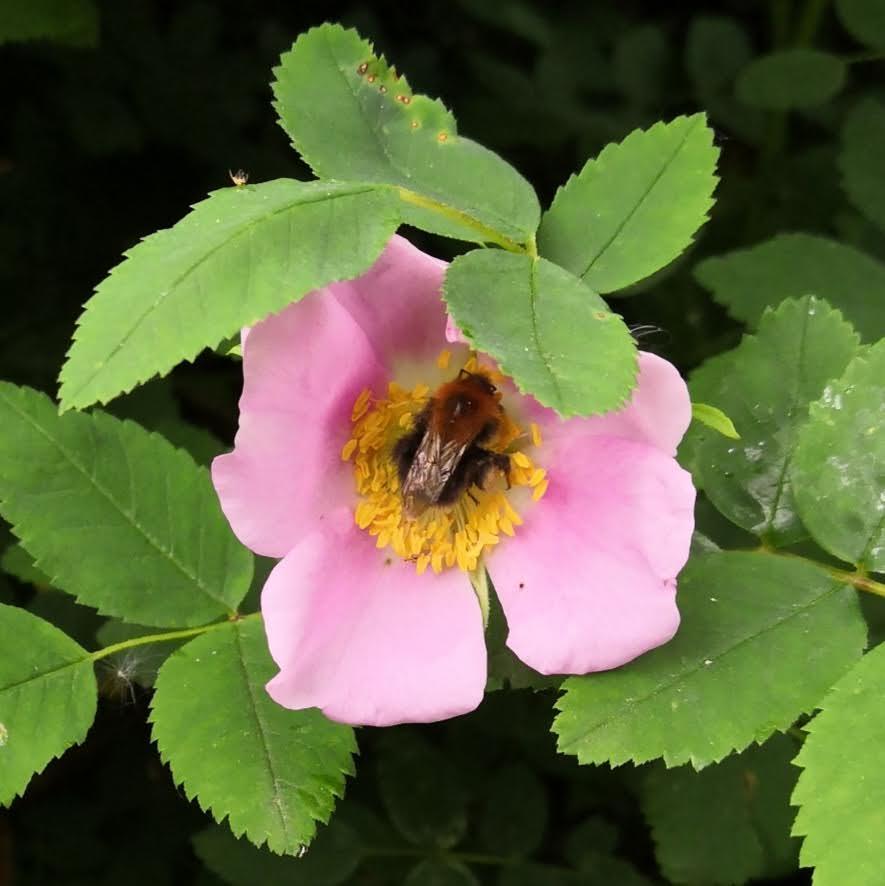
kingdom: Animalia
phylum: Arthropoda
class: Insecta
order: Hymenoptera
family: Apidae
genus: Bombus
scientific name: Bombus hypnorum
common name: New garden bumblebee
